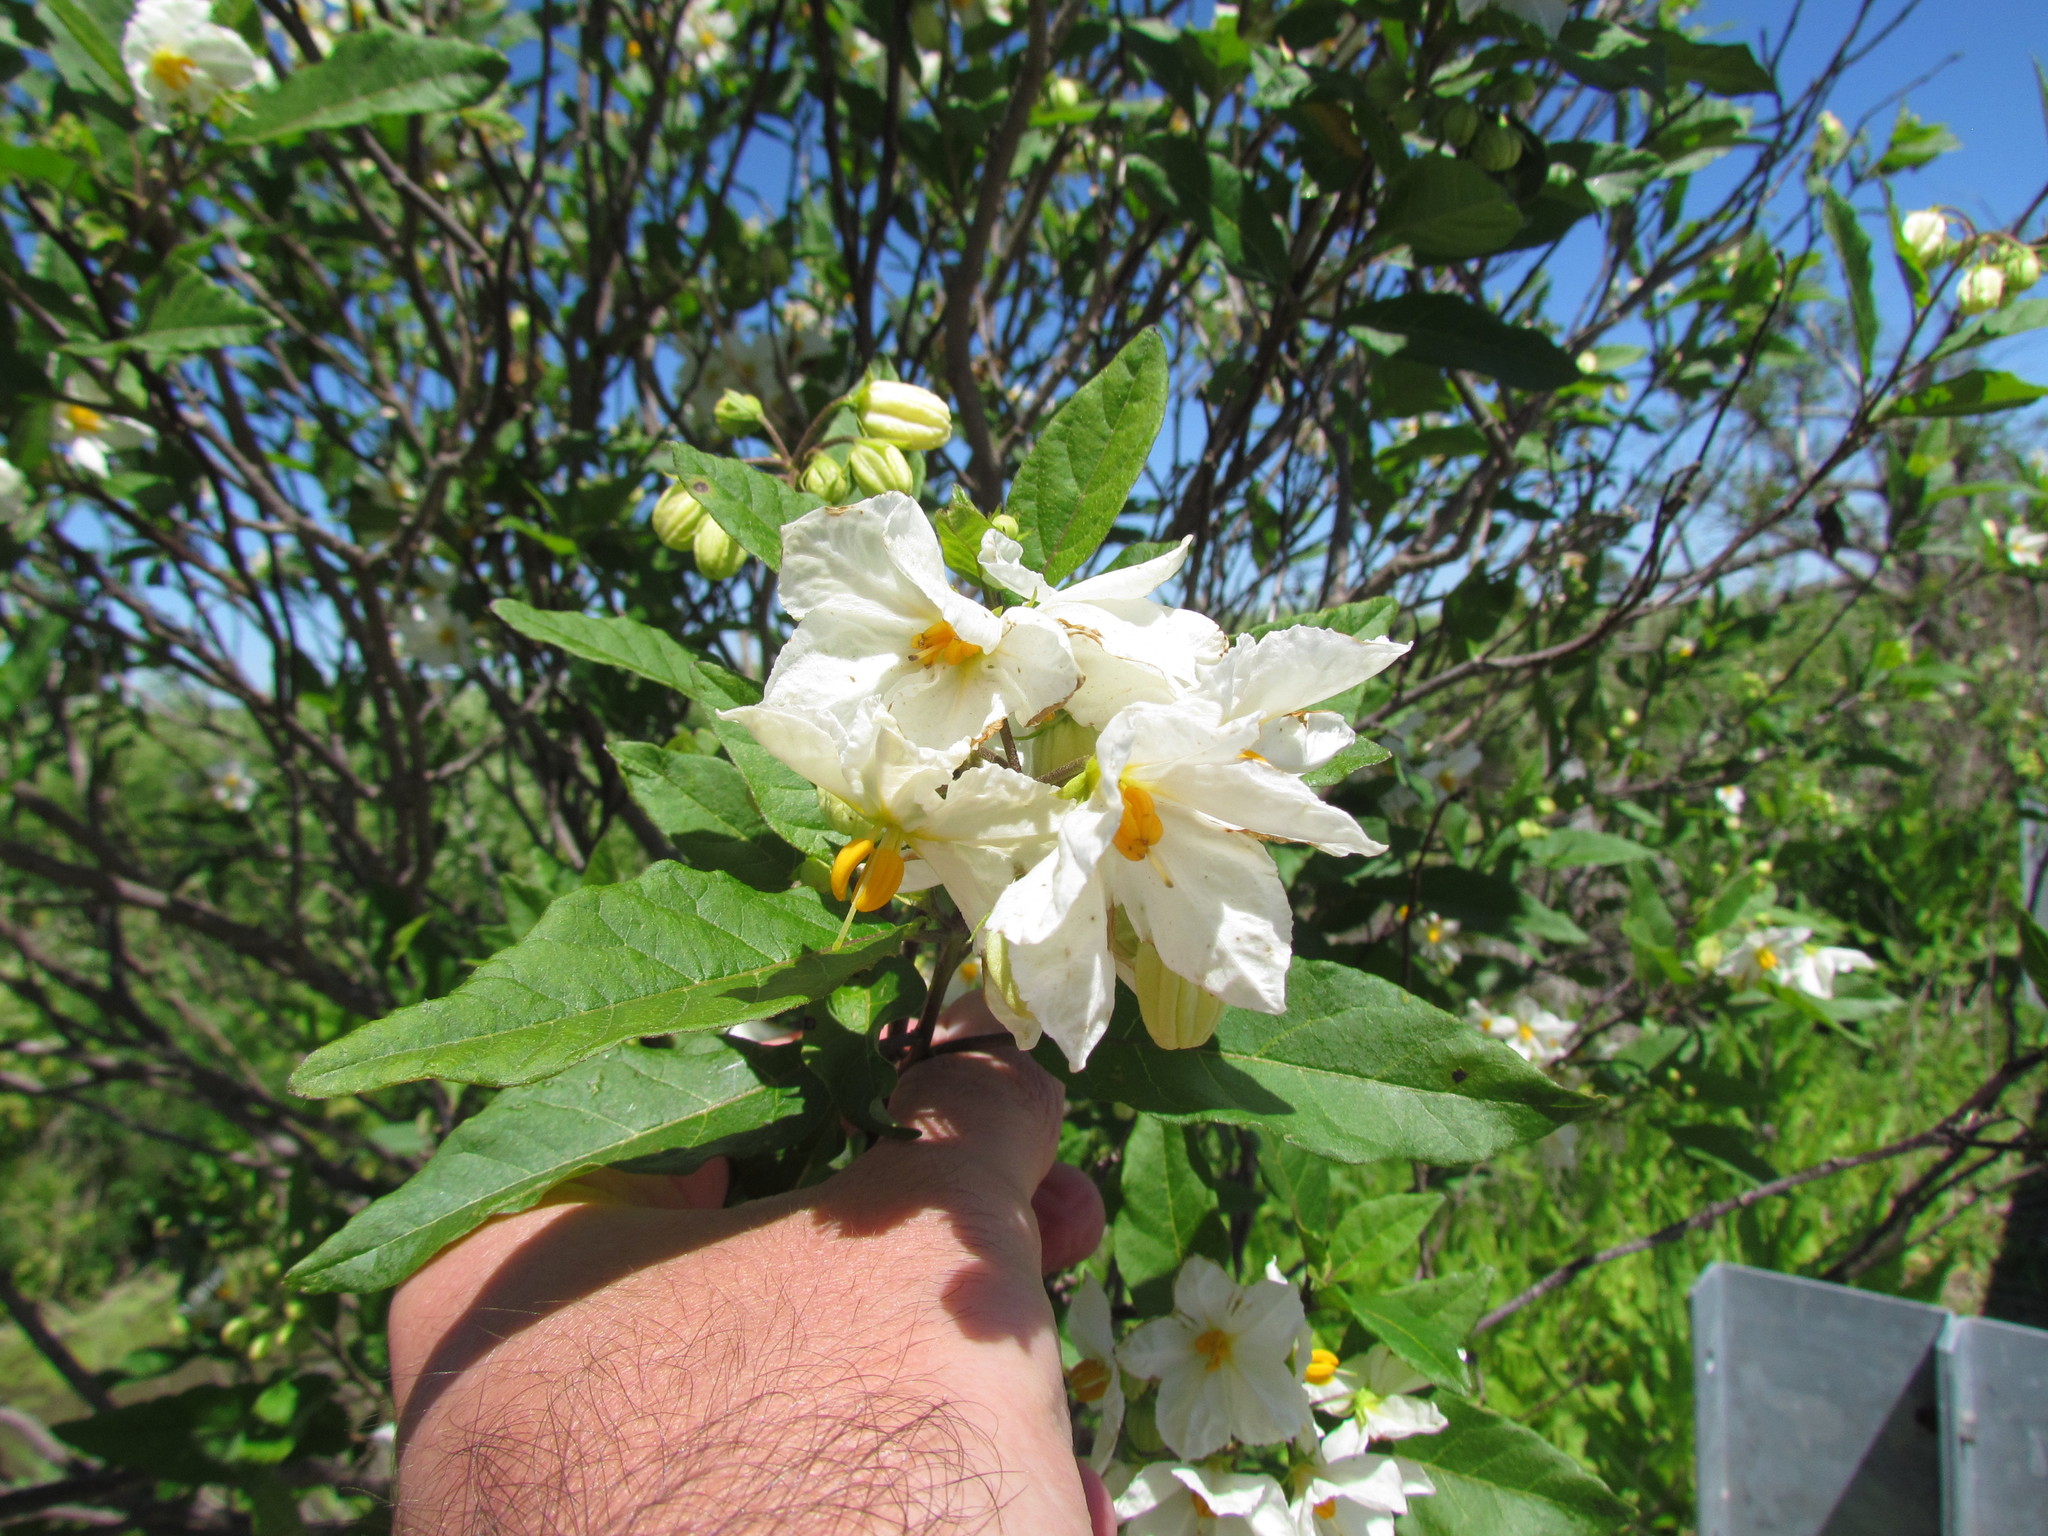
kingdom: Plantae
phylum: Tracheophyta
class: Magnoliopsida
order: Solanales
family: Solanaceae
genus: Solanum
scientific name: Solanum bonariense
